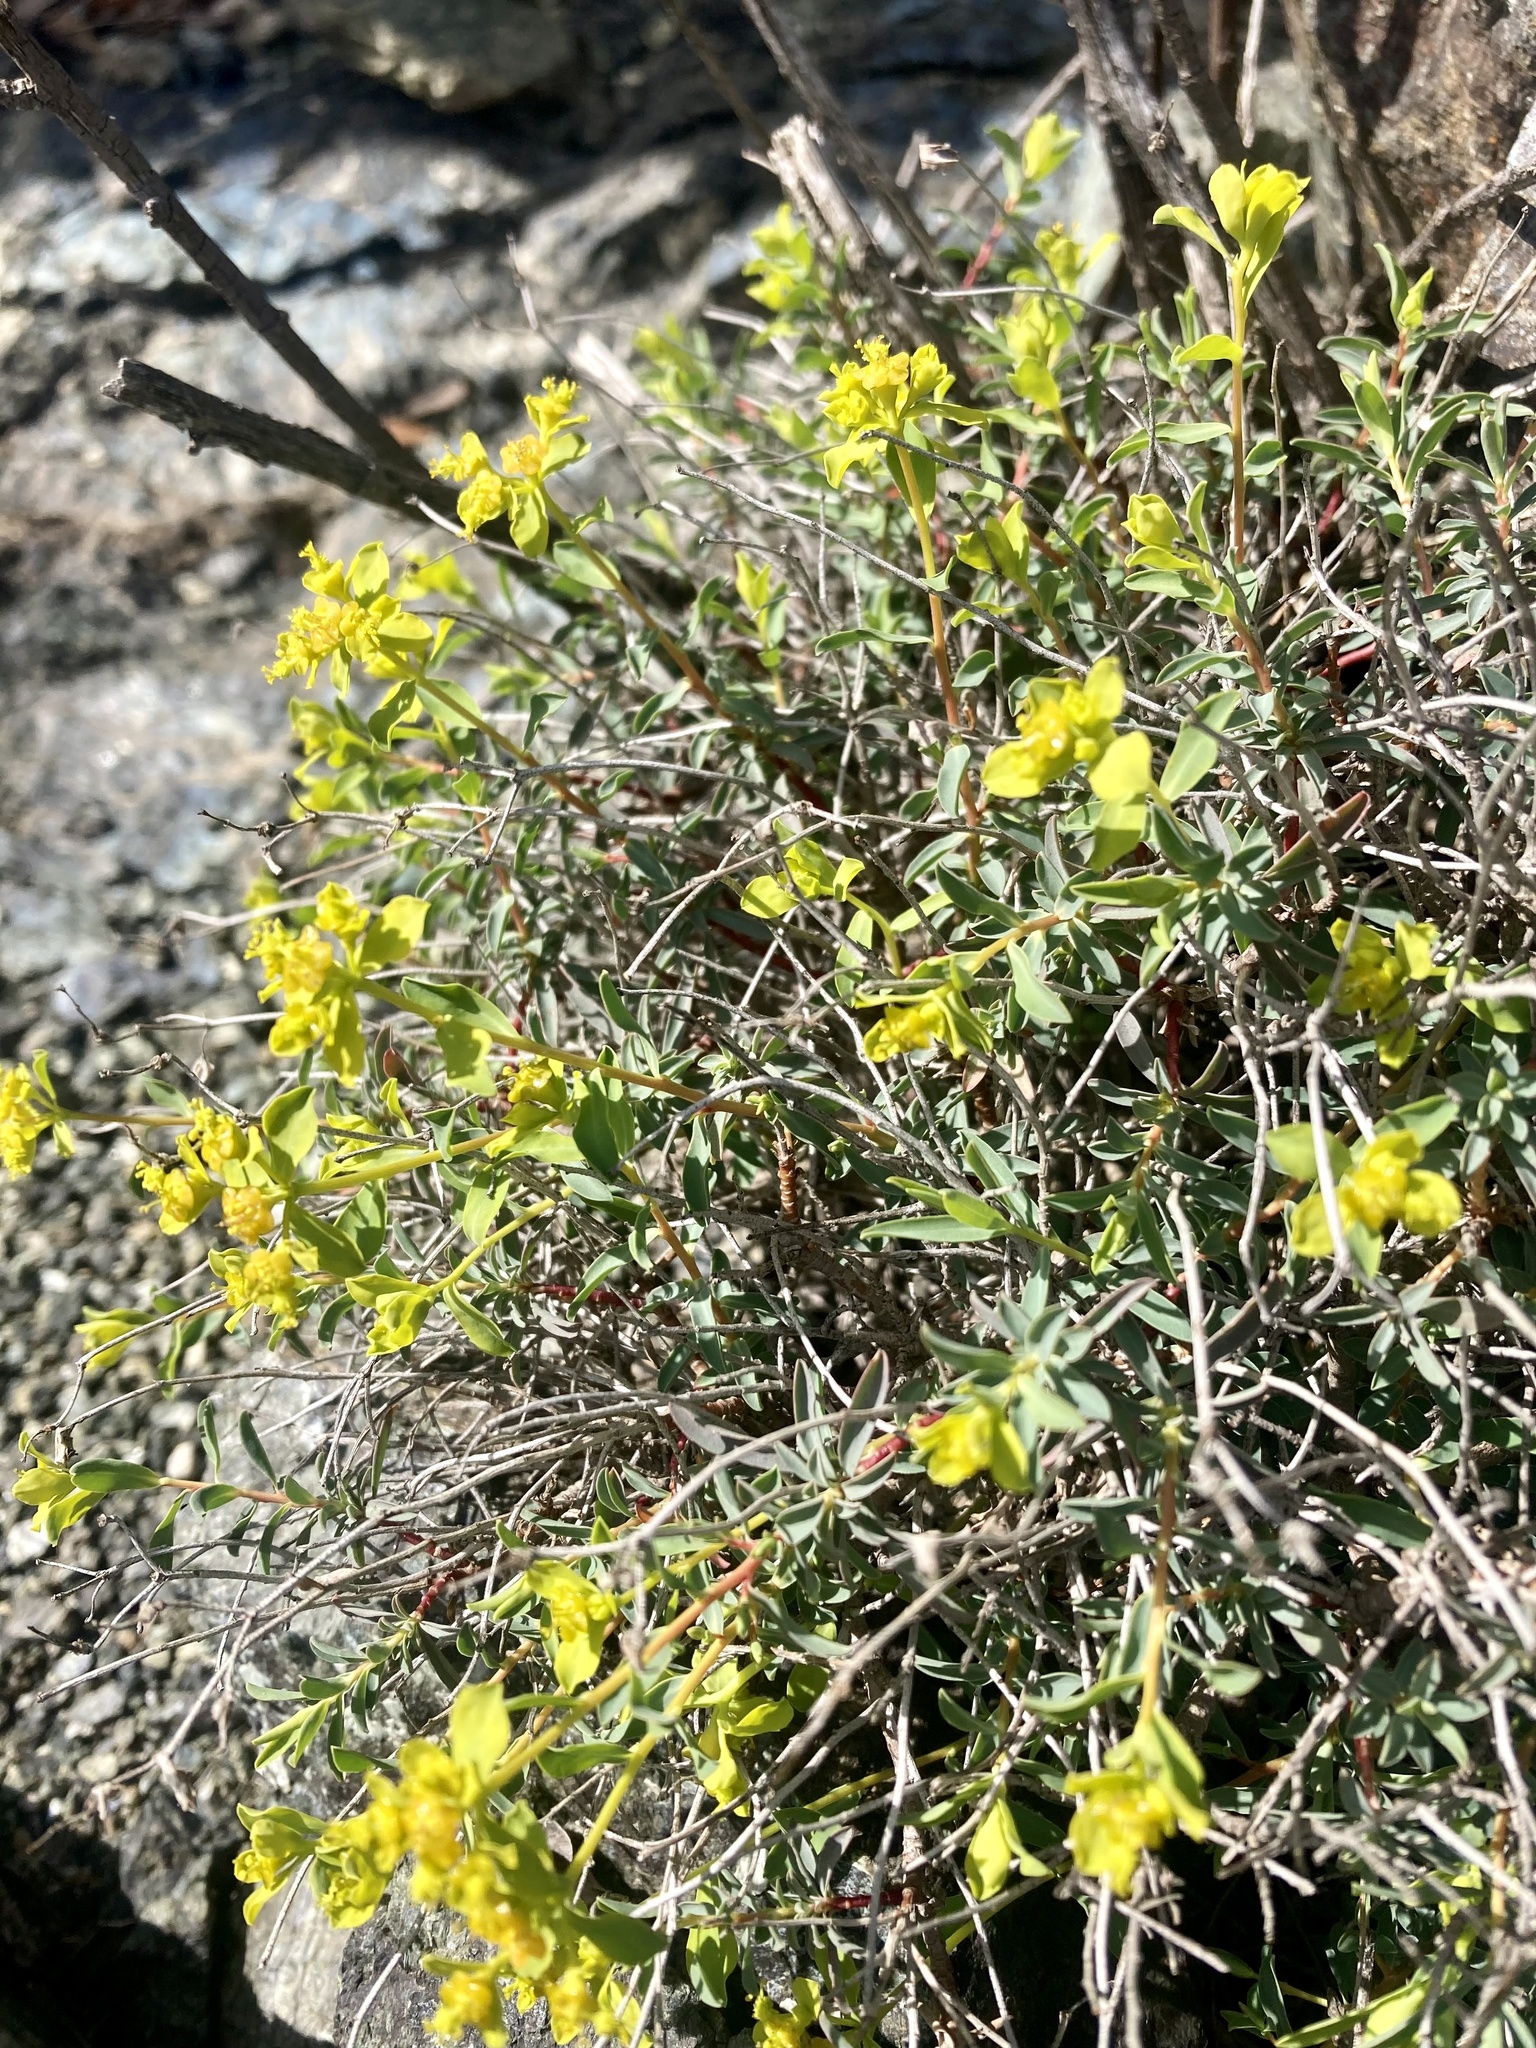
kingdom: Plantae
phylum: Tracheophyta
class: Magnoliopsida
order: Malpighiales
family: Euphorbiaceae
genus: Euphorbia
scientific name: Euphorbia spinosa
